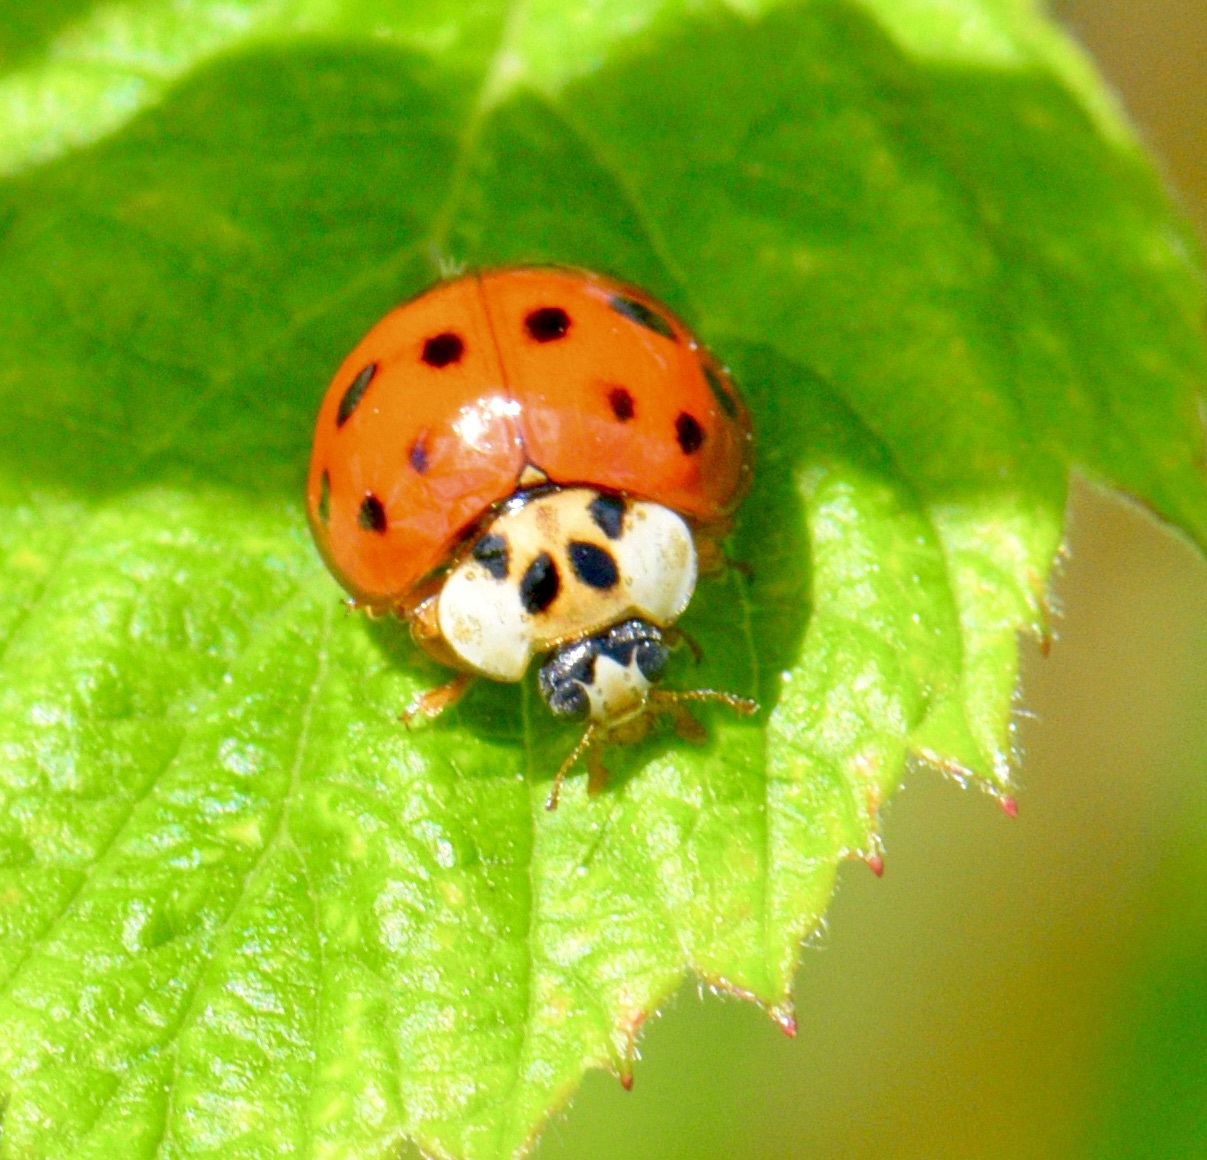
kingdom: Animalia
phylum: Arthropoda
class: Insecta
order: Coleoptera
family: Coccinellidae
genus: Harmonia
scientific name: Harmonia axyridis
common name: Harlequin ladybird
